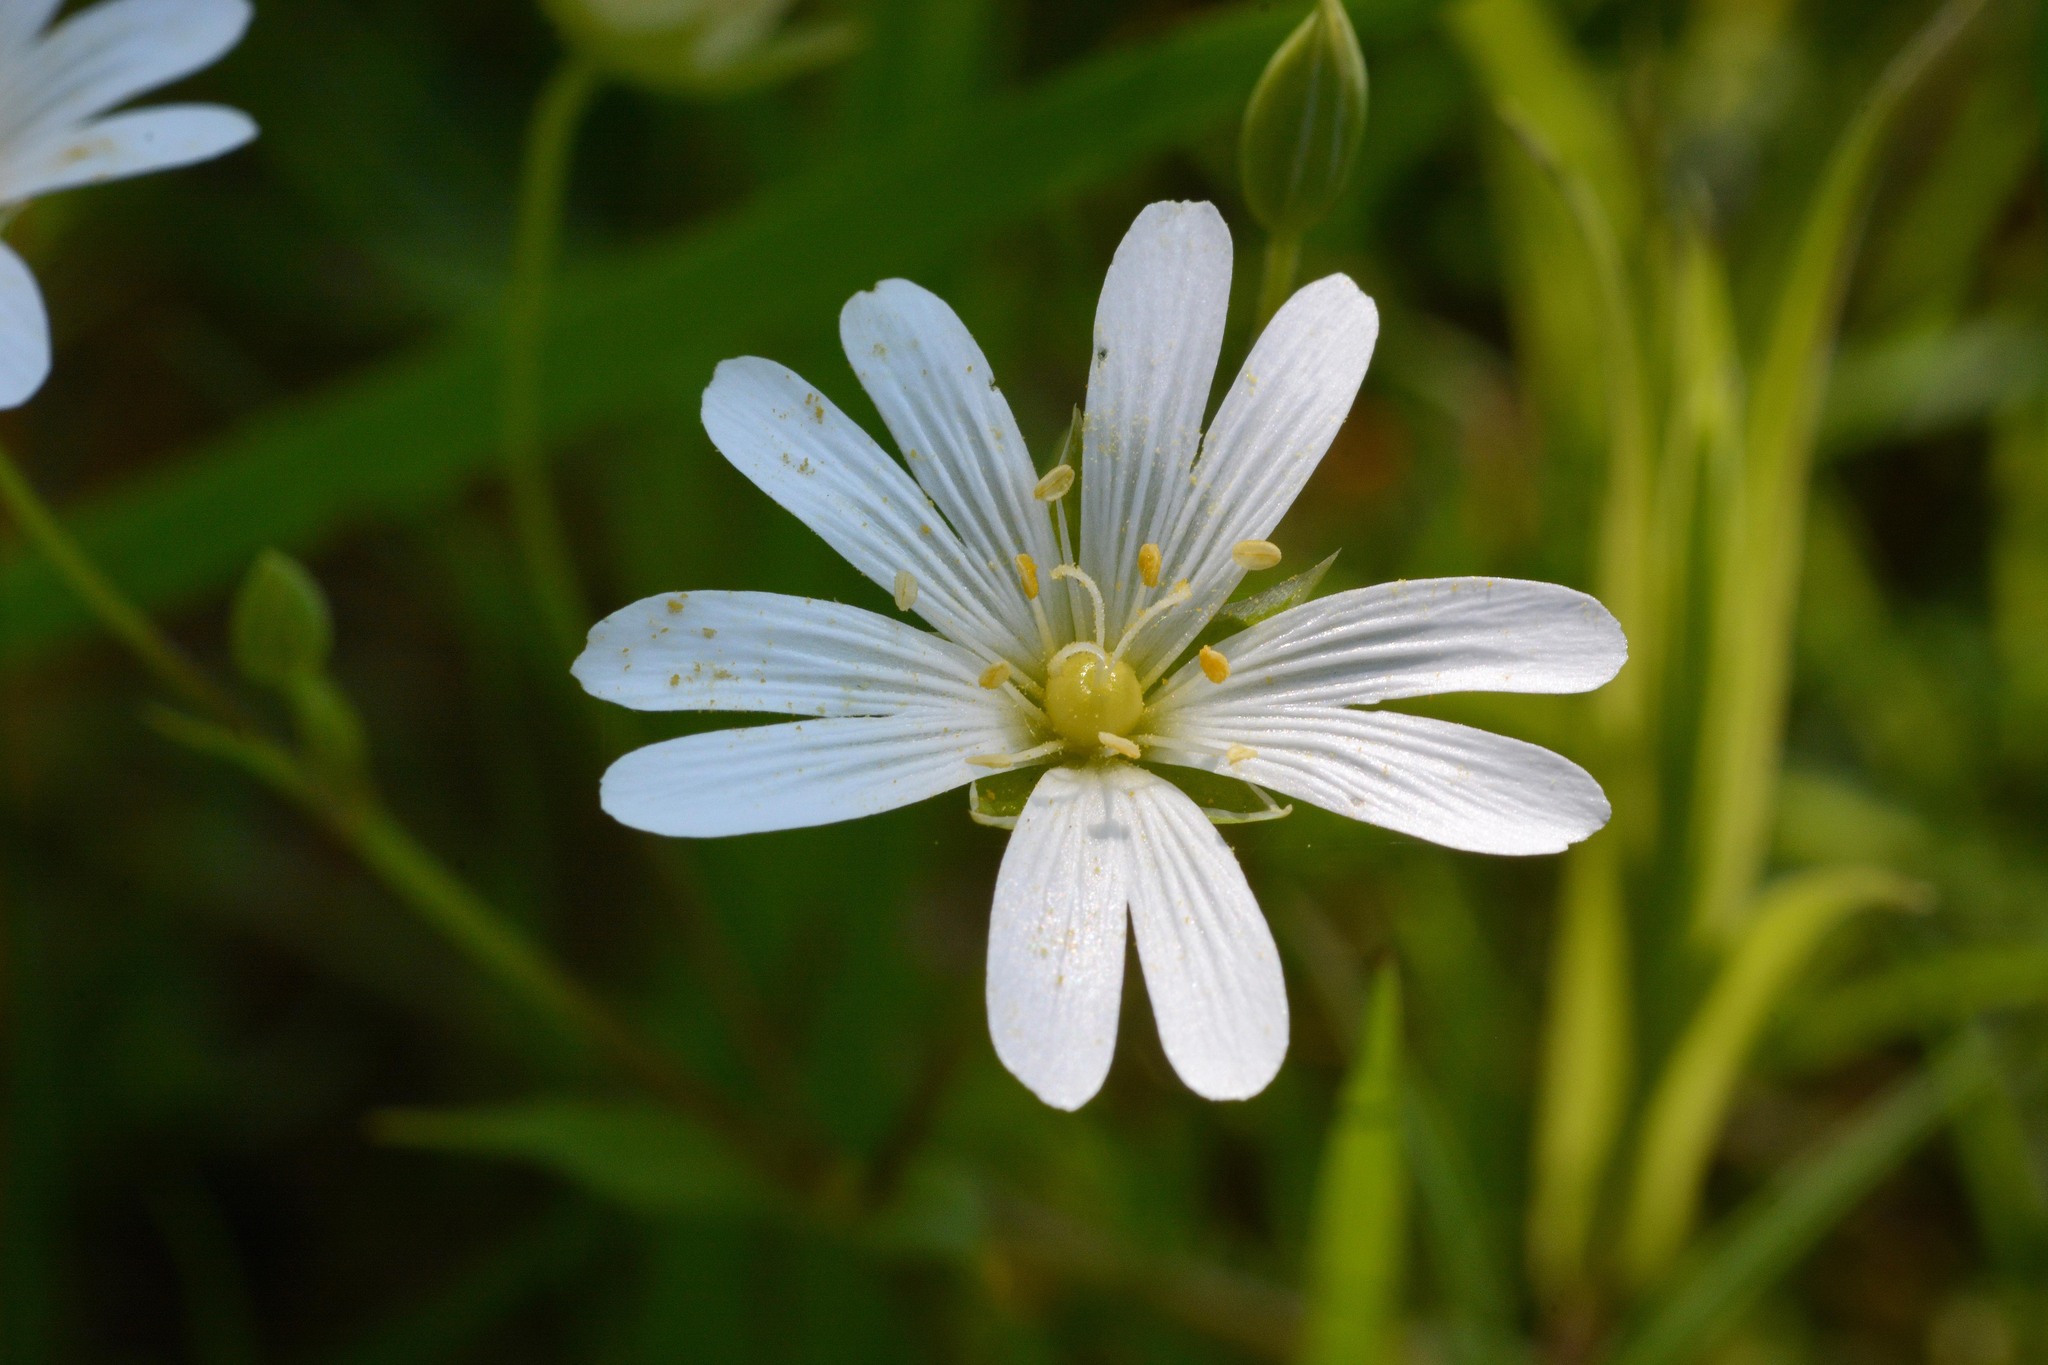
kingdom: Plantae
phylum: Tracheophyta
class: Magnoliopsida
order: Caryophyllales
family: Caryophyllaceae
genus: Rabelera
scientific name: Rabelera holostea
